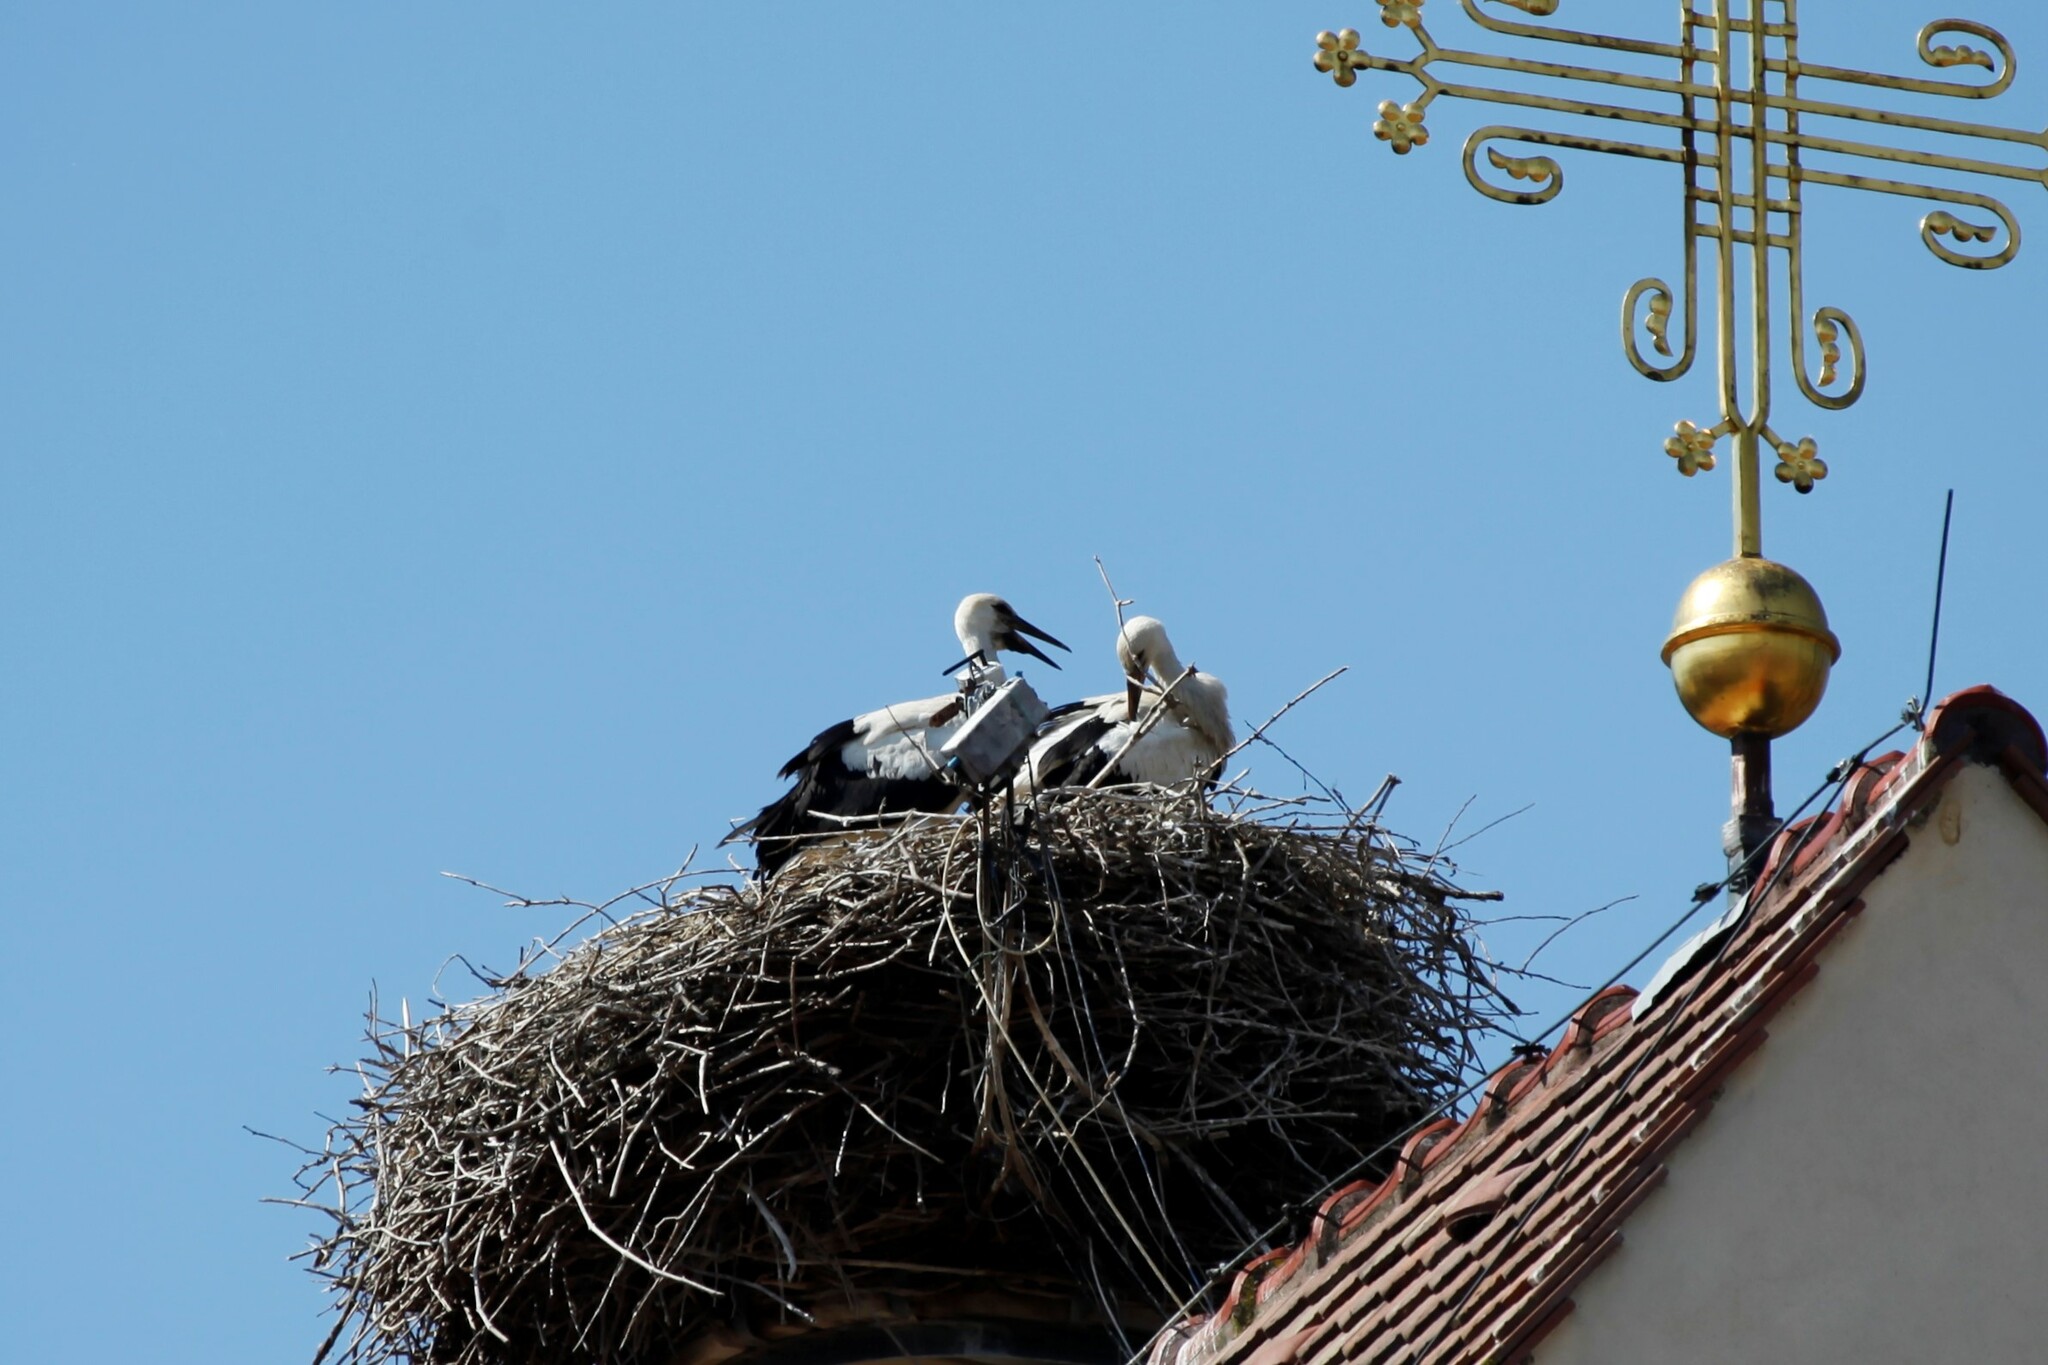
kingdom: Animalia
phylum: Chordata
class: Aves
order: Ciconiiformes
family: Ciconiidae
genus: Ciconia
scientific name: Ciconia ciconia
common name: White stork
